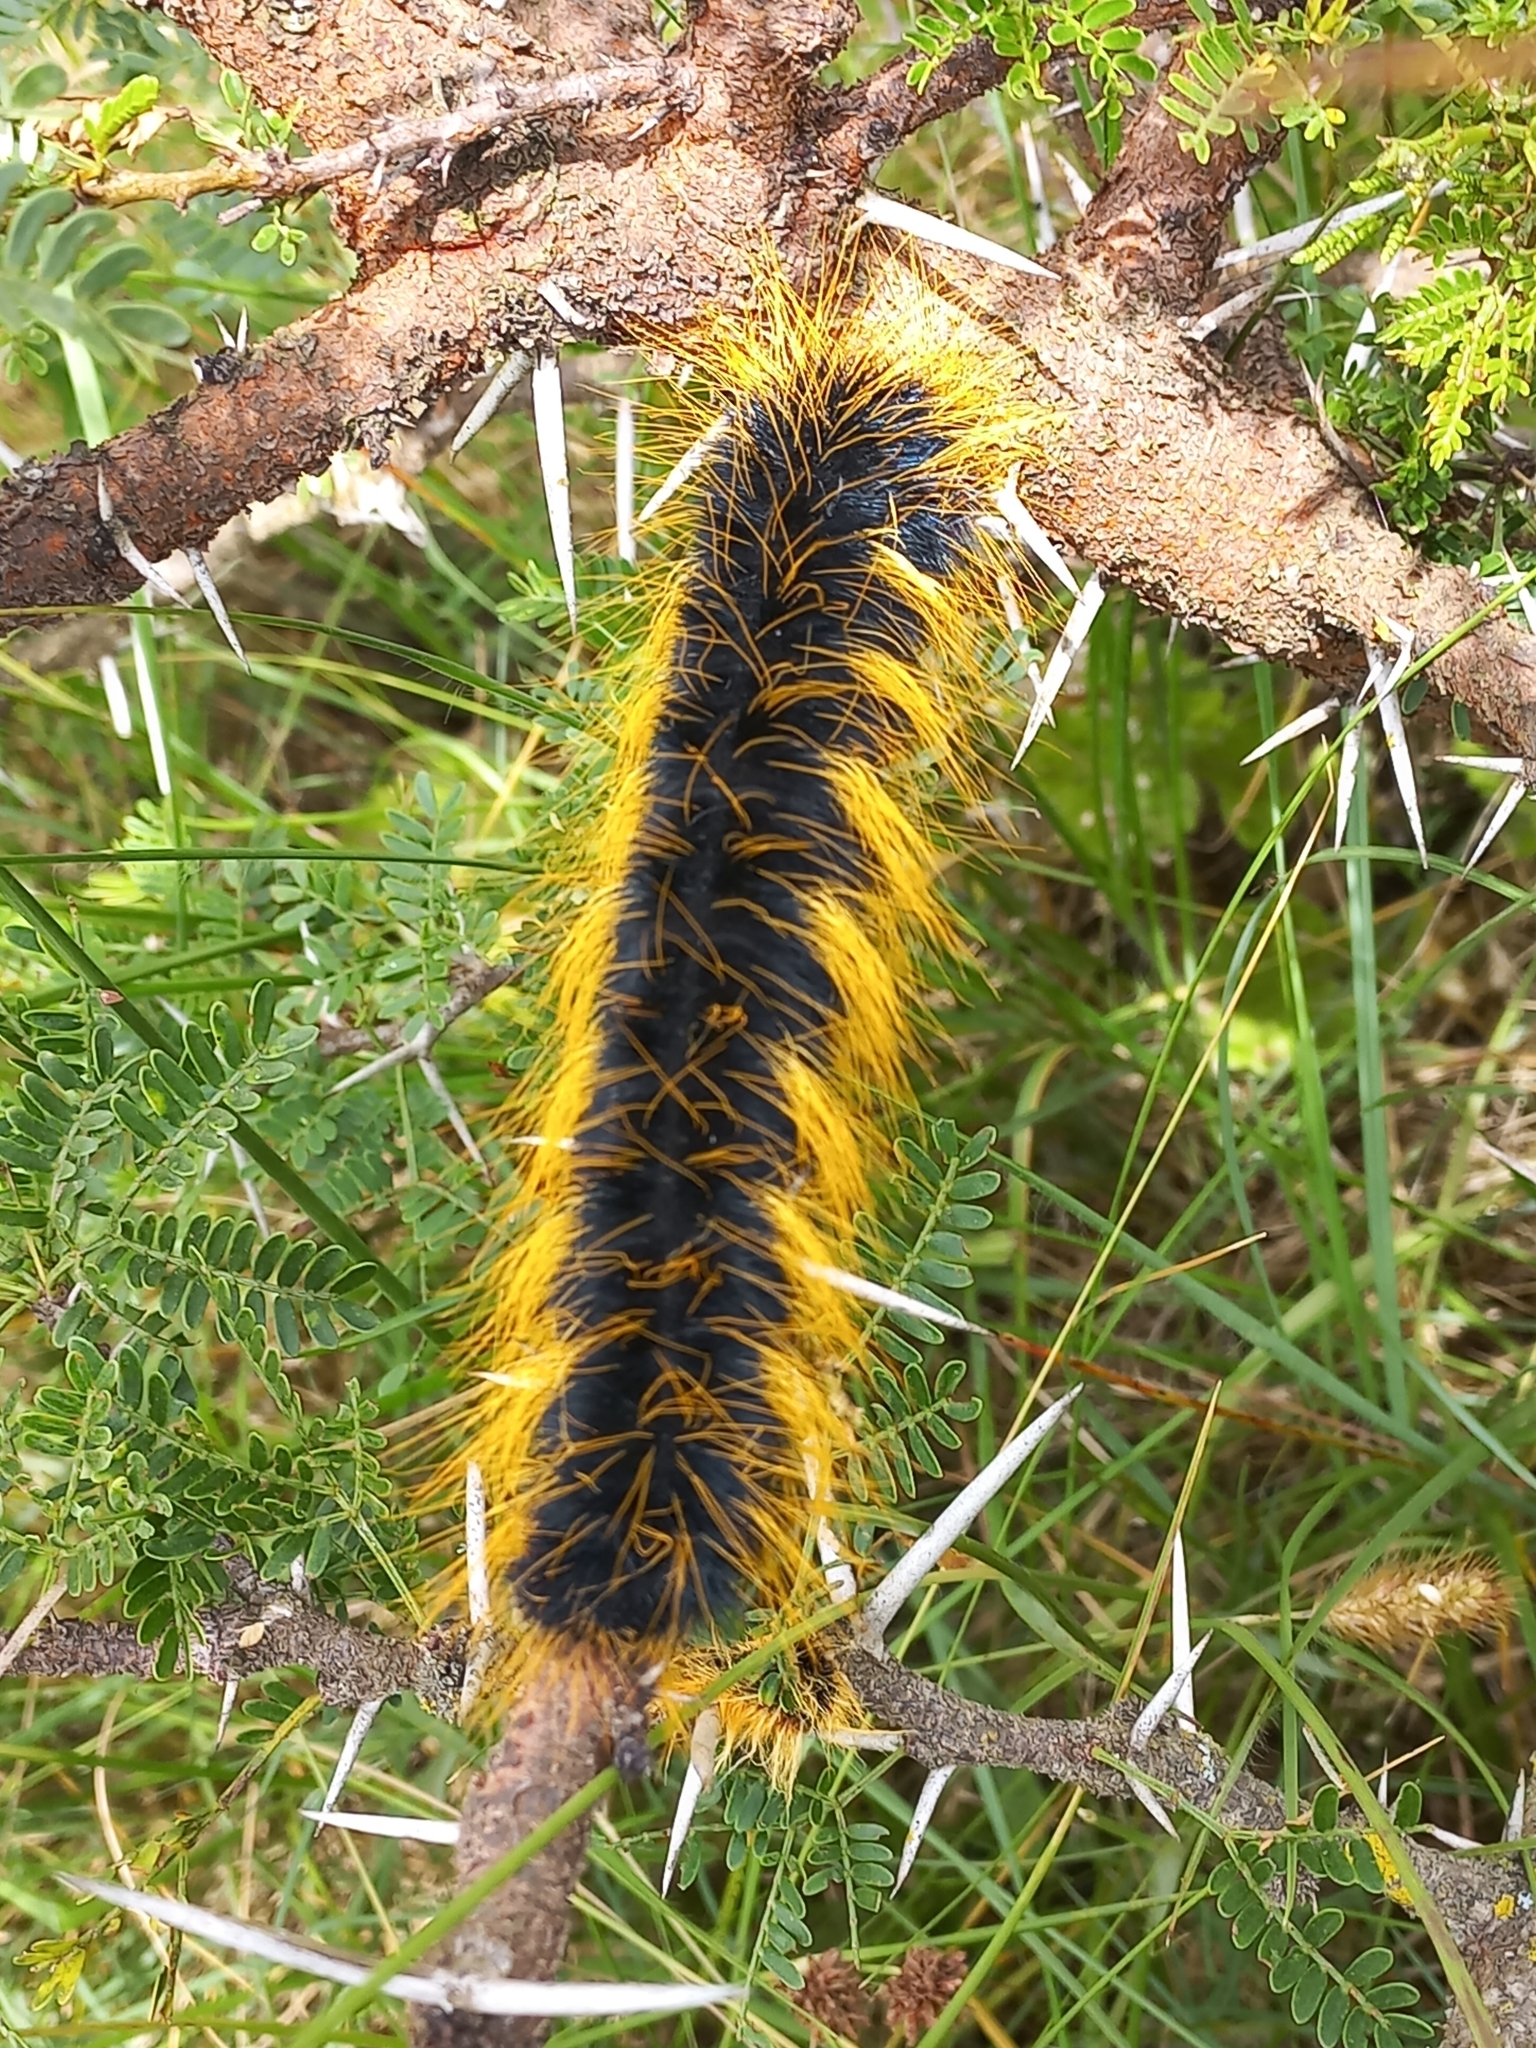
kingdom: Animalia
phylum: Arthropoda
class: Insecta
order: Lepidoptera
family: Lasiocampidae
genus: Gonometa
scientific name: Gonometa postica
